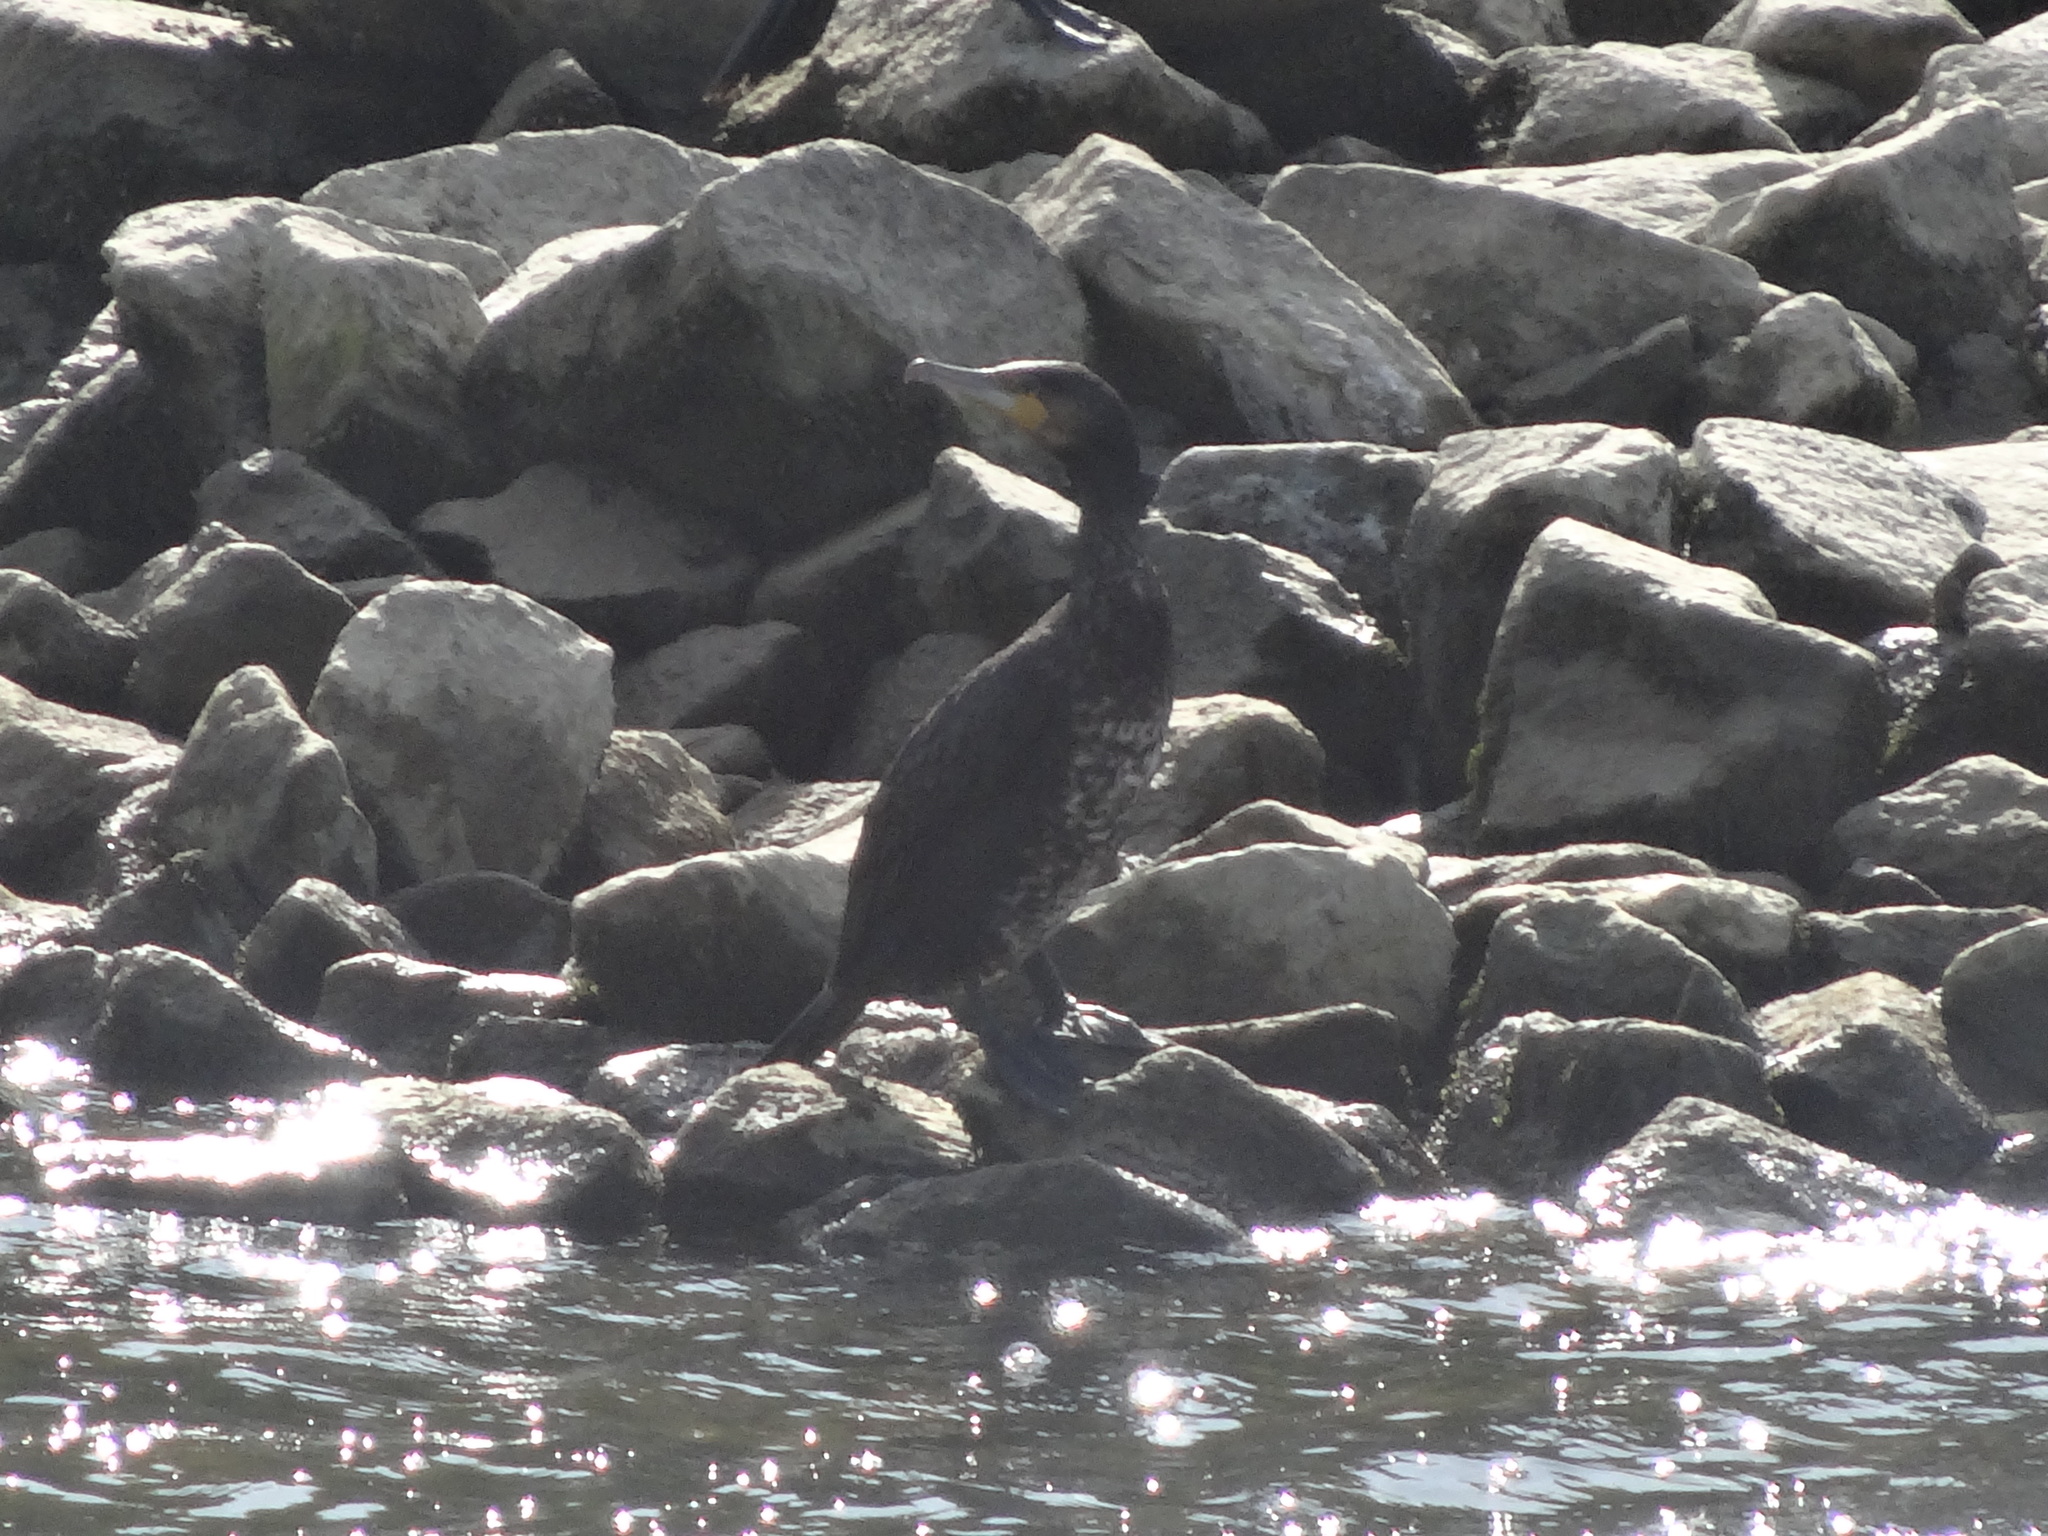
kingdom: Animalia
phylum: Chordata
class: Aves
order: Suliformes
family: Phalacrocoracidae
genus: Phalacrocorax
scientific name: Phalacrocorax carbo
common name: Great cormorant
